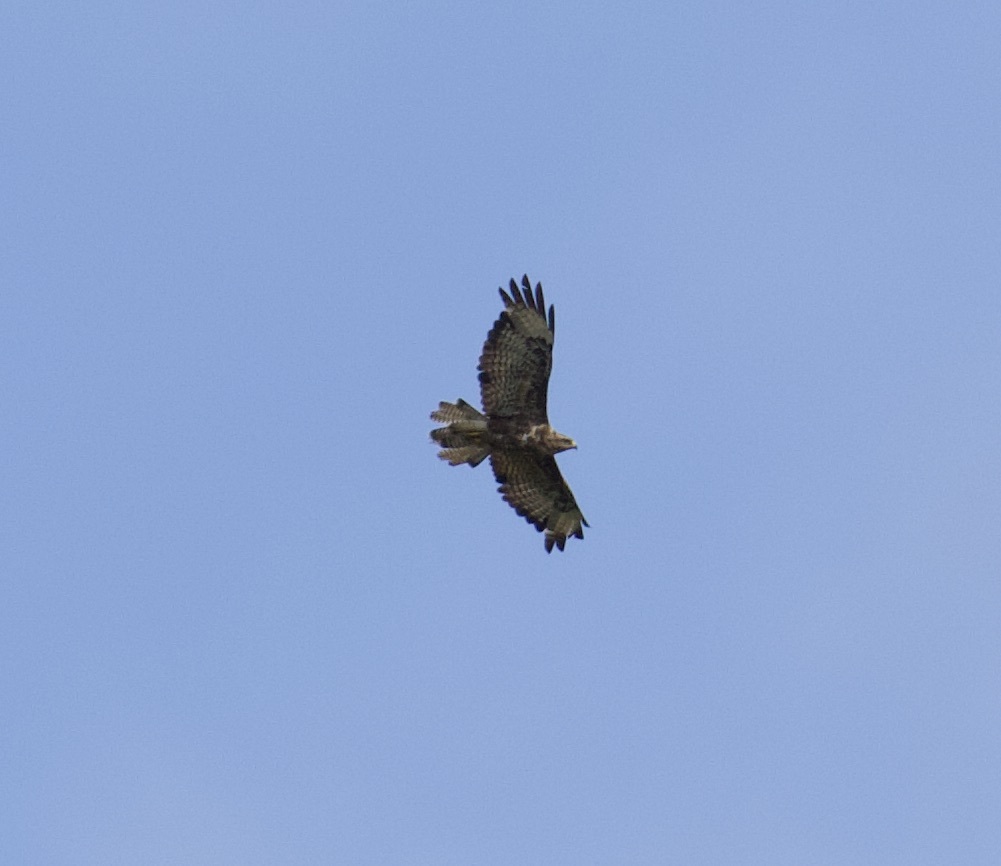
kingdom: Animalia
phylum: Chordata
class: Aves
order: Accipitriformes
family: Accipitridae
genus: Buteo
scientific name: Buteo buteo
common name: Common buzzard
